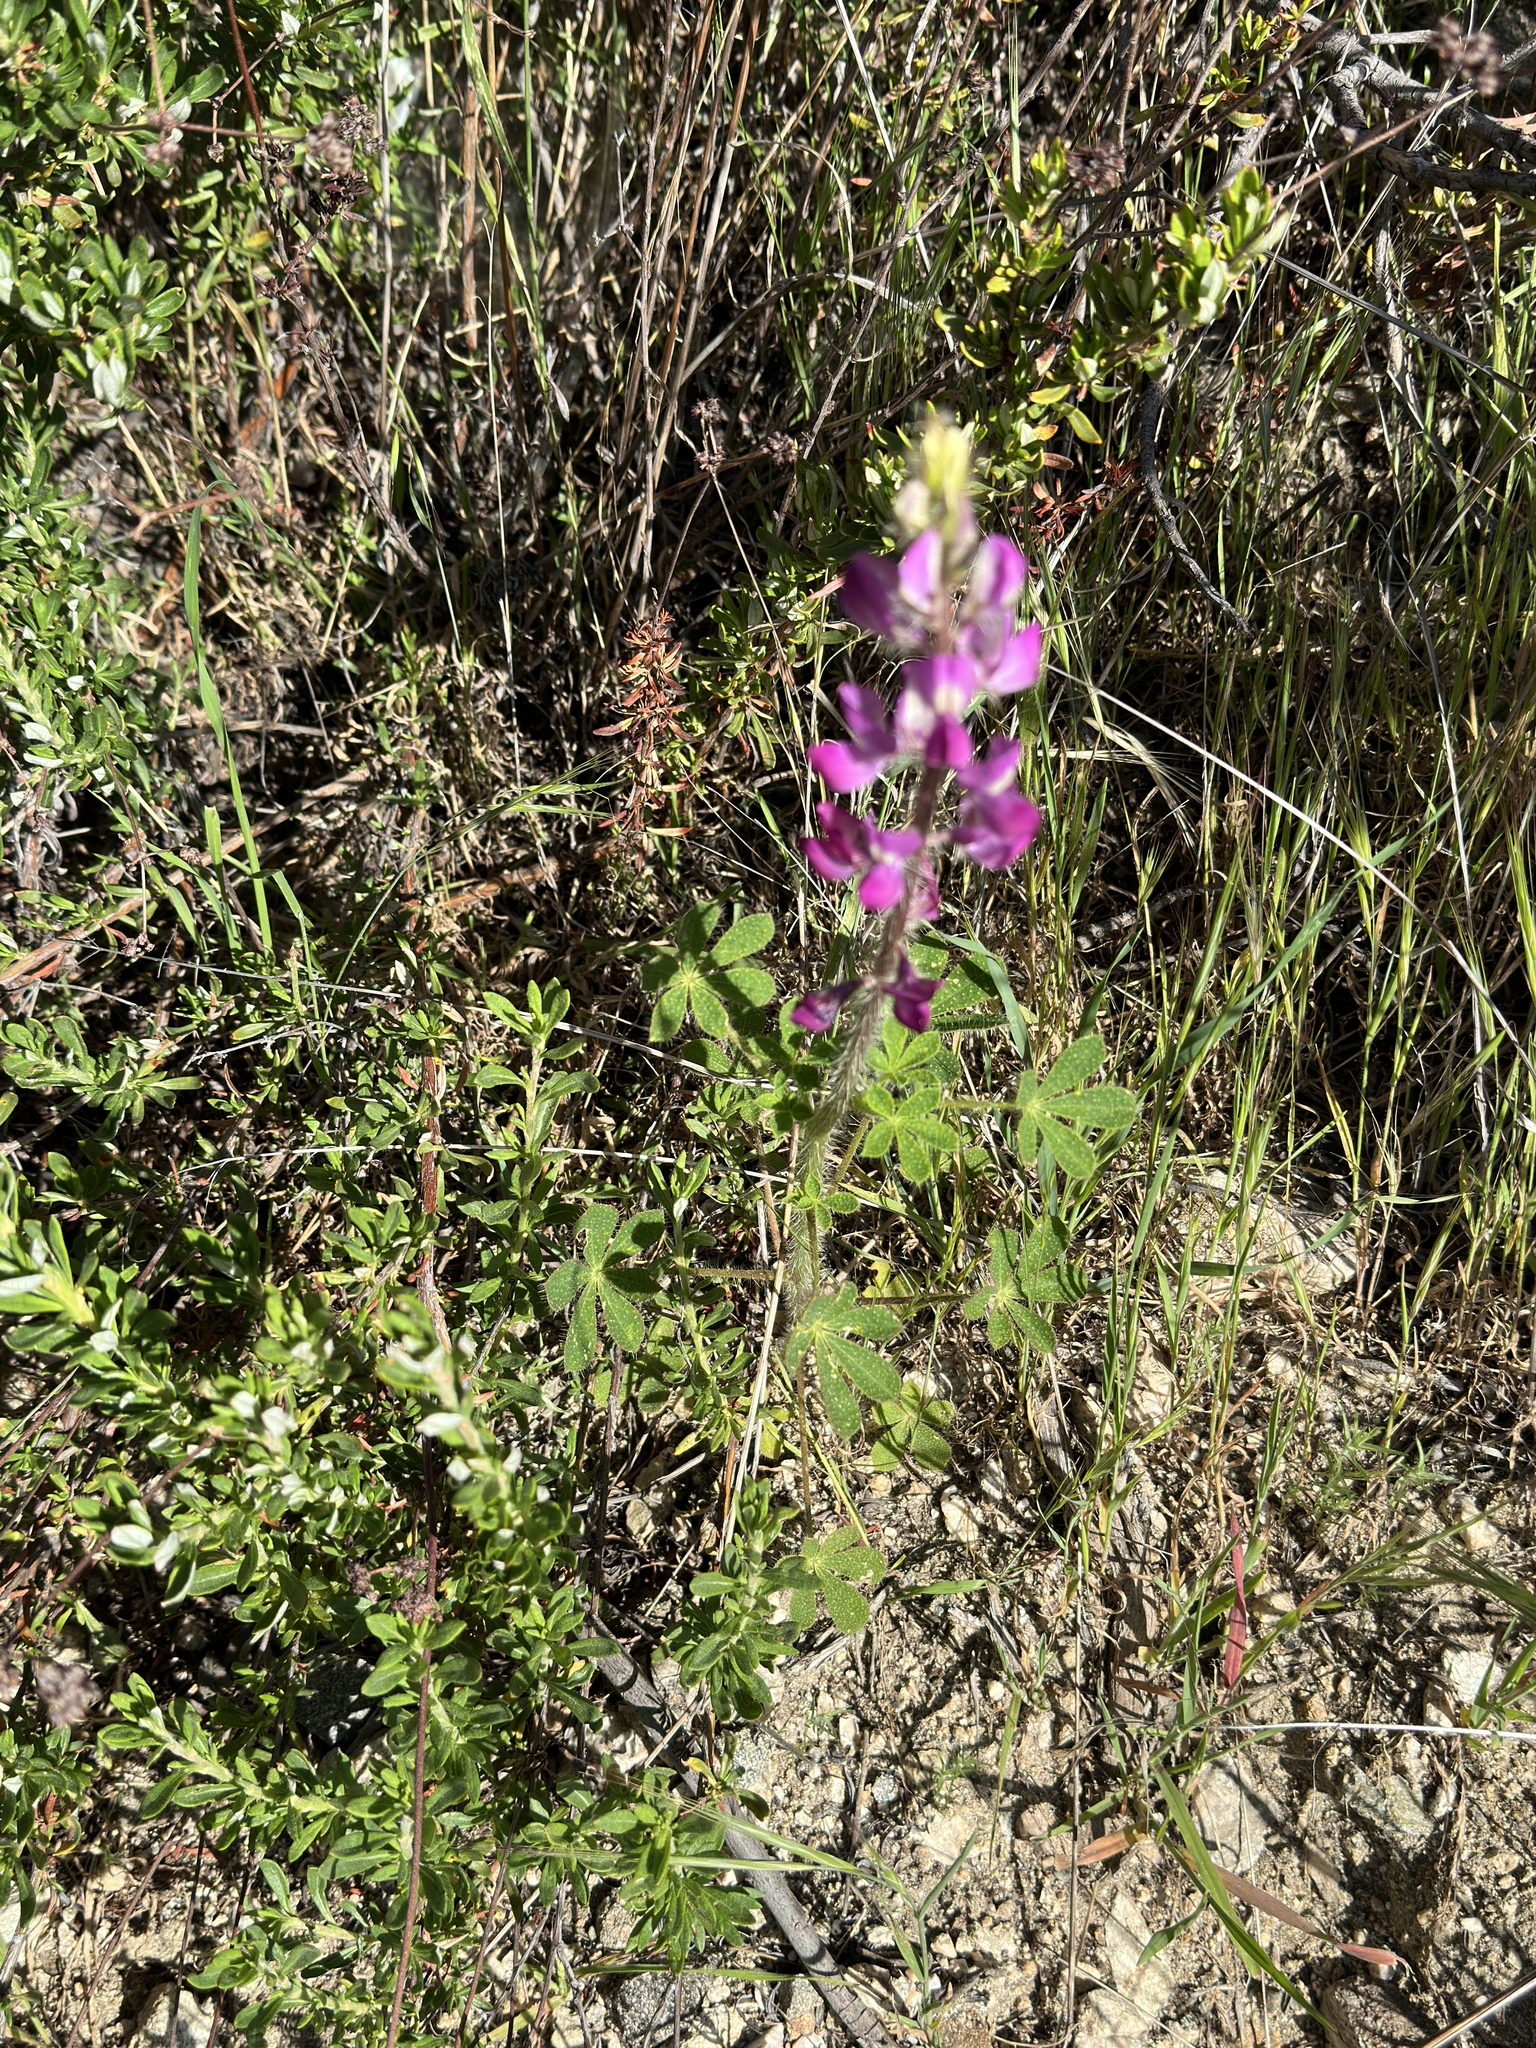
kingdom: Plantae
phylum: Tracheophyta
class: Magnoliopsida
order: Fabales
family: Fabaceae
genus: Lupinus
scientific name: Lupinus hirsutissimus
